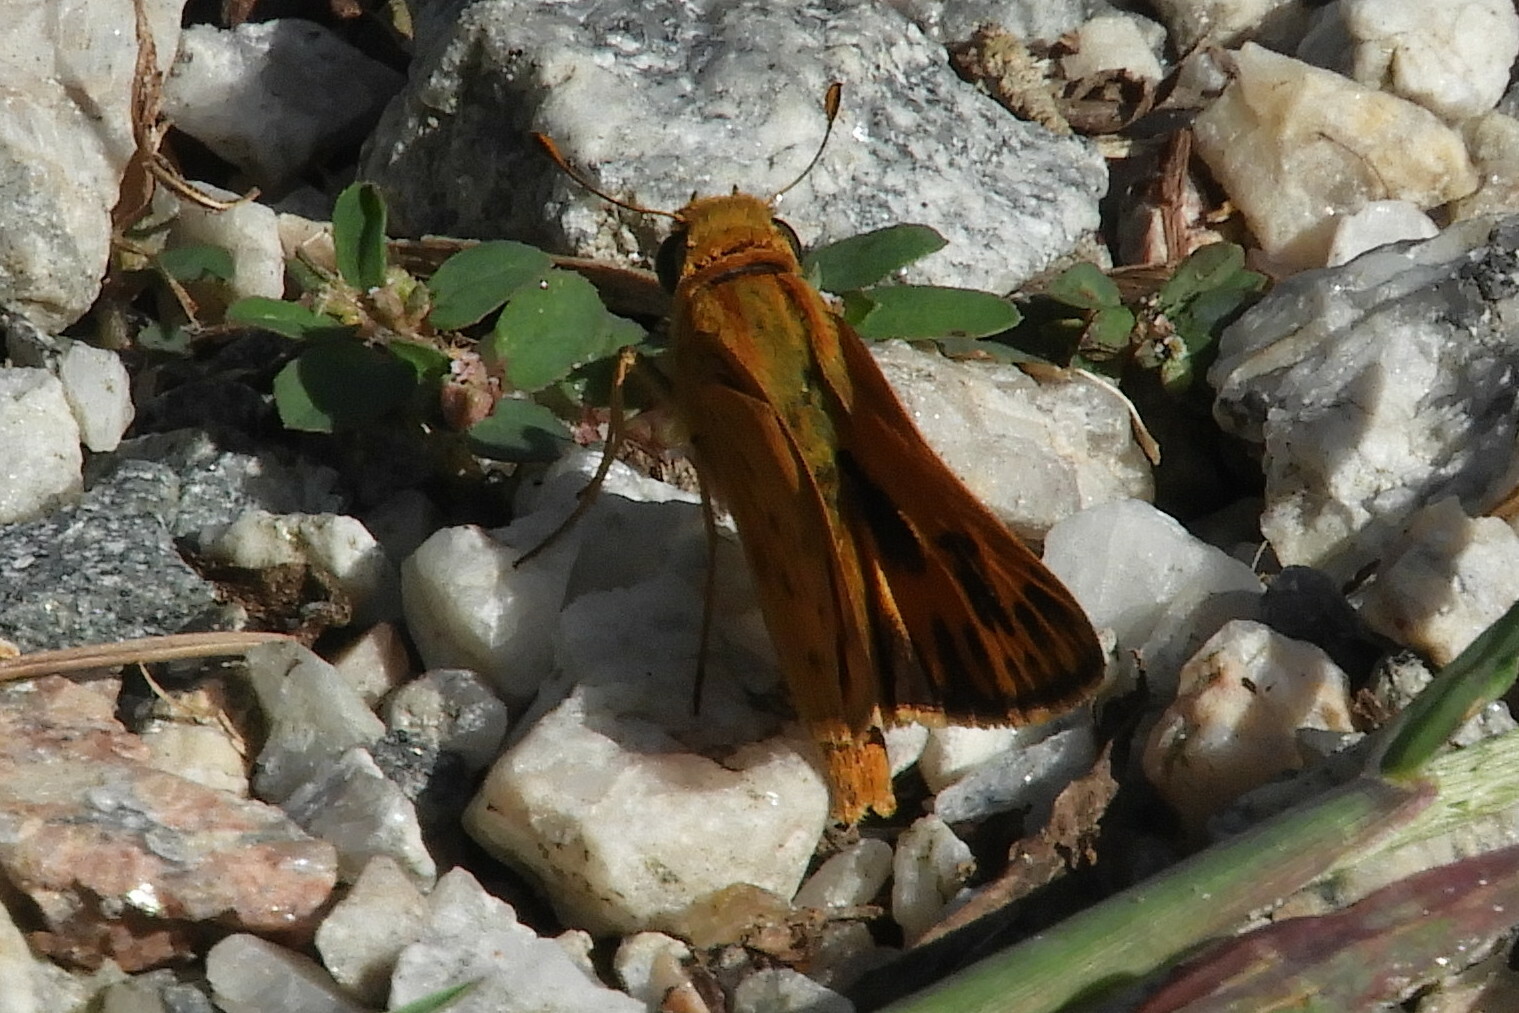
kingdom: Animalia
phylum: Arthropoda
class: Insecta
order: Lepidoptera
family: Hesperiidae
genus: Hylephila
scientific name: Hylephila phyleus
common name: Fiery skipper
